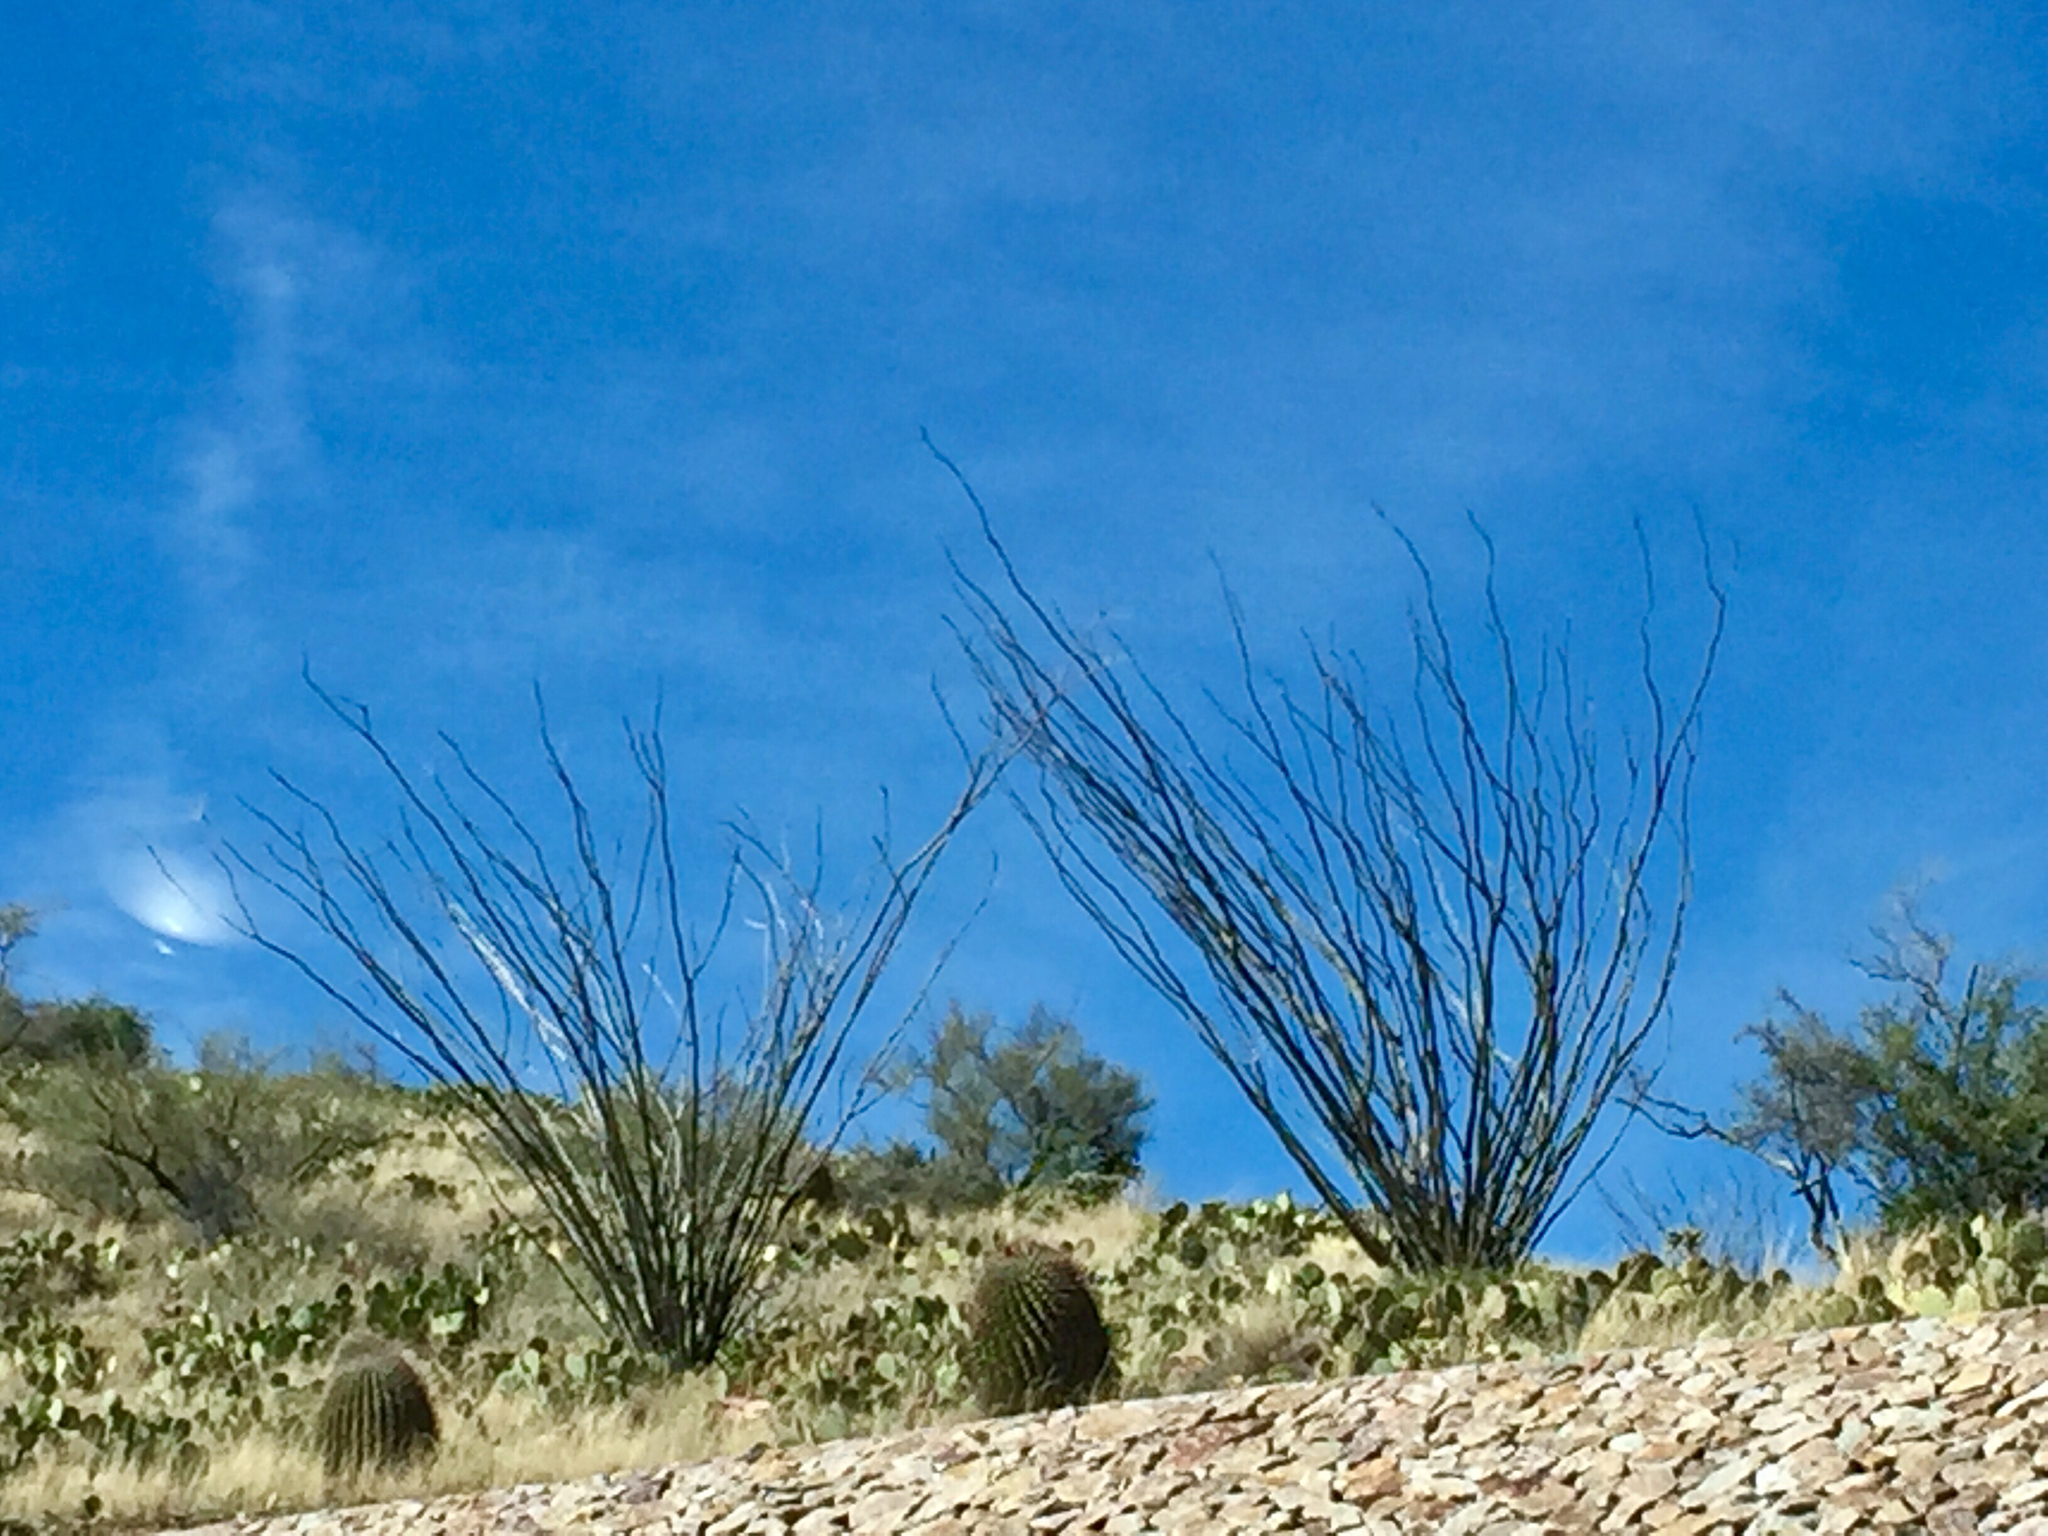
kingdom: Plantae
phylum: Tracheophyta
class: Magnoliopsida
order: Ericales
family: Fouquieriaceae
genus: Fouquieria
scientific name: Fouquieria splendens
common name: Vine-cactus
